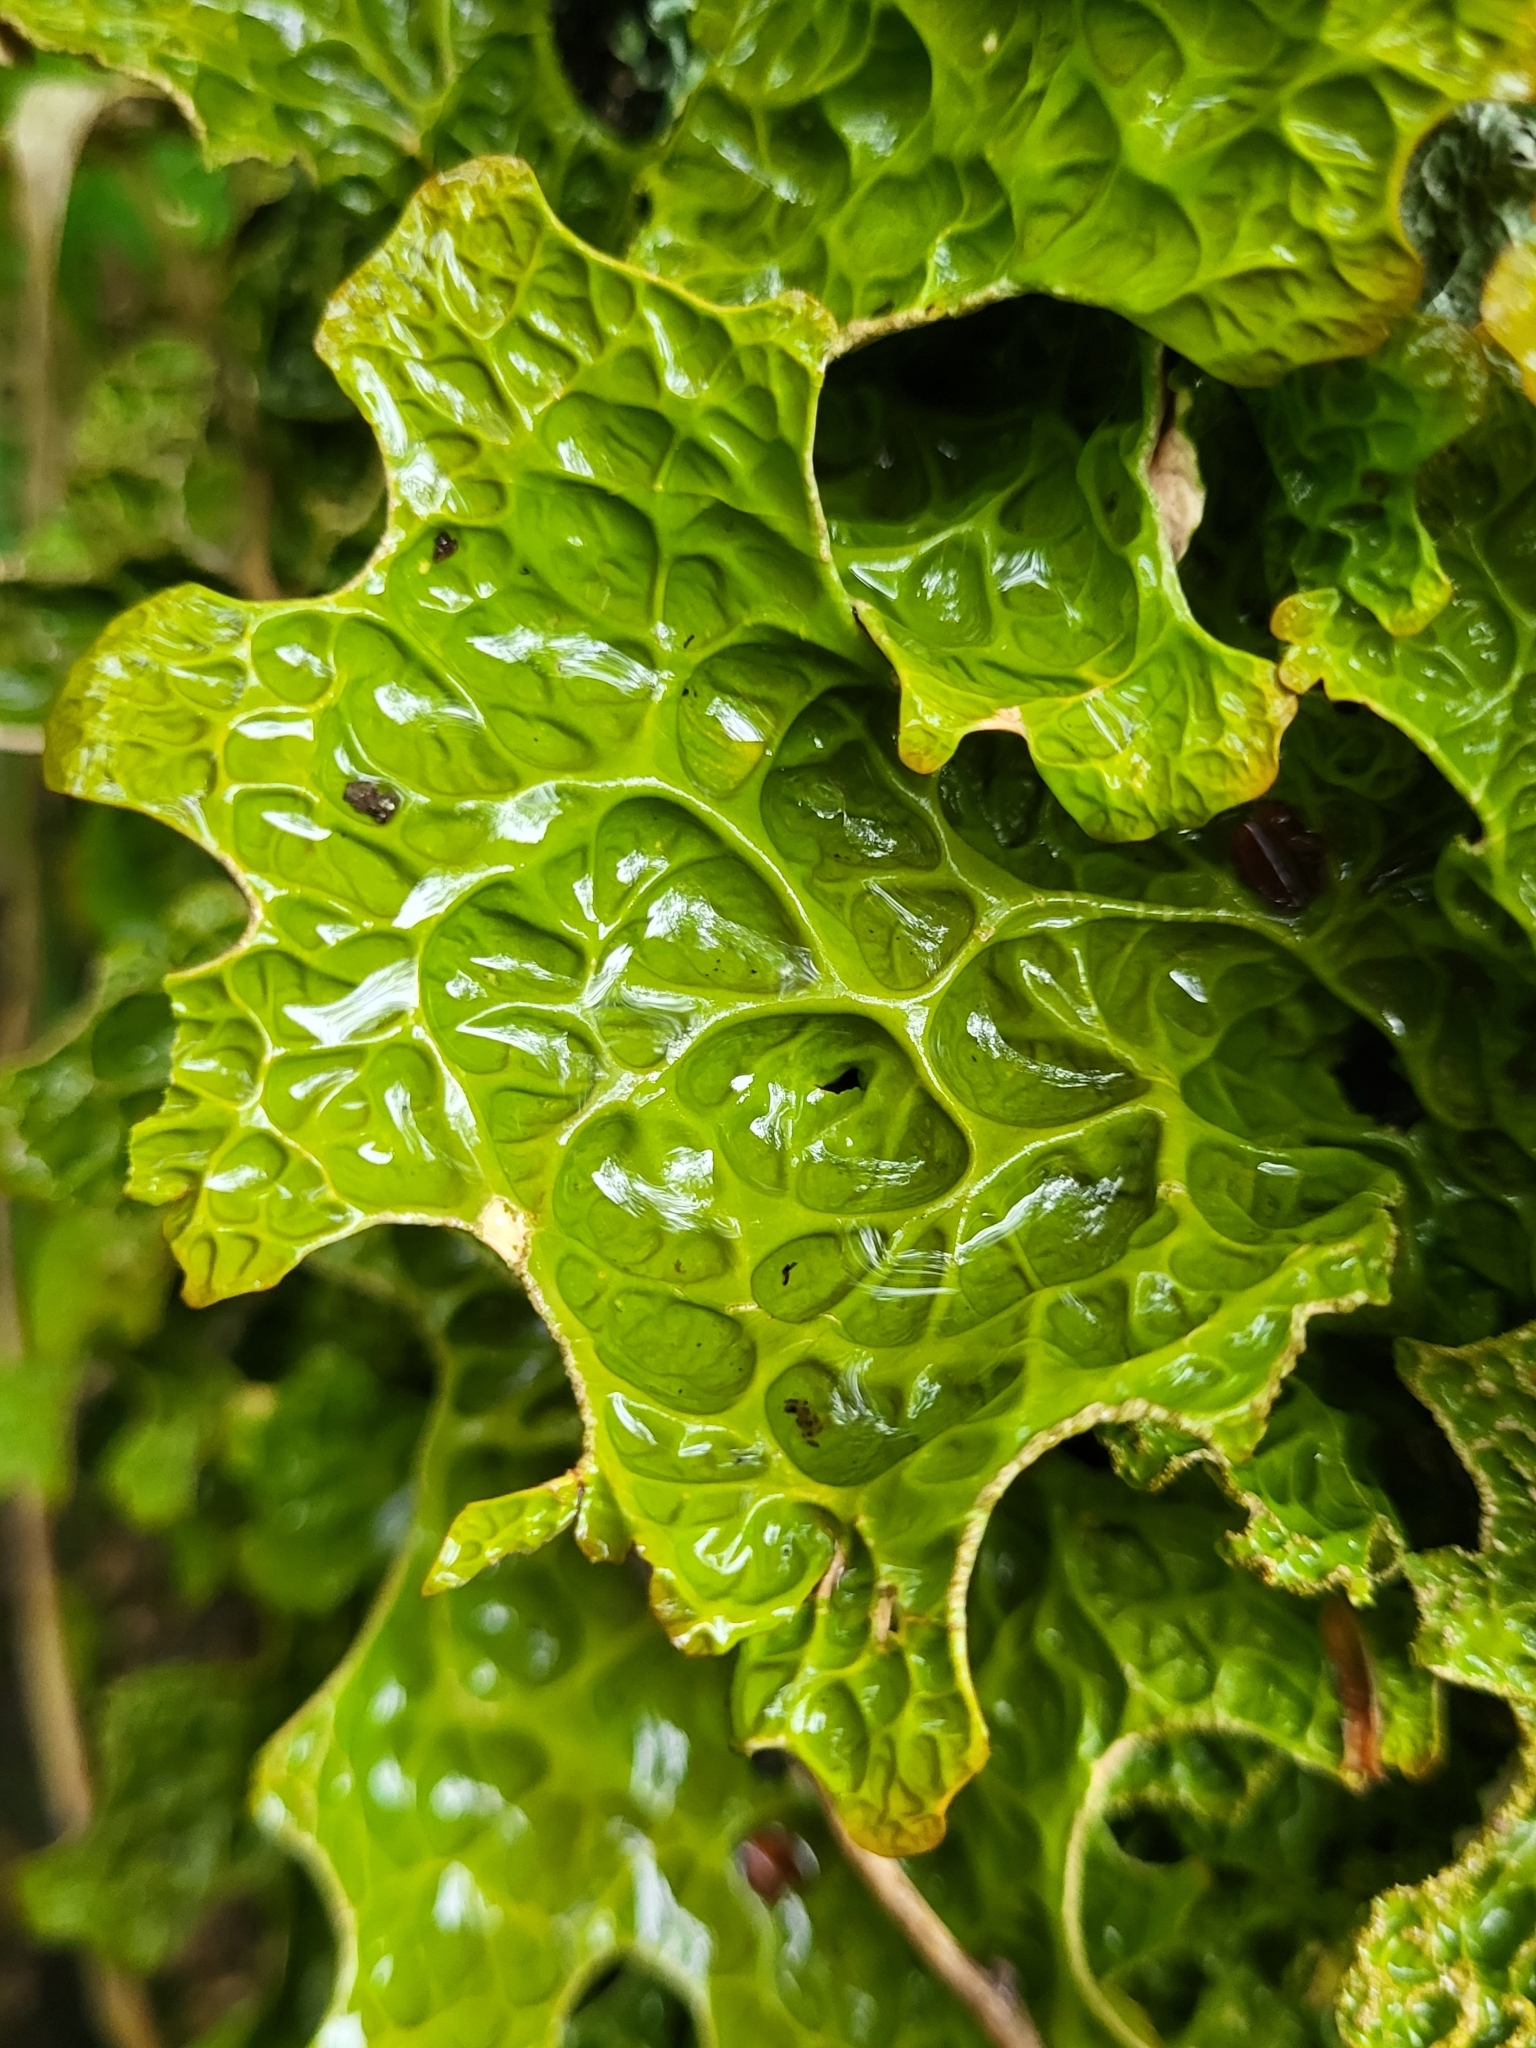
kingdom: Fungi
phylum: Ascomycota
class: Lecanoromycetes
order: Peltigerales
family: Lobariaceae
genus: Lobaria
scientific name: Lobaria pulmonaria
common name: Lungwort
